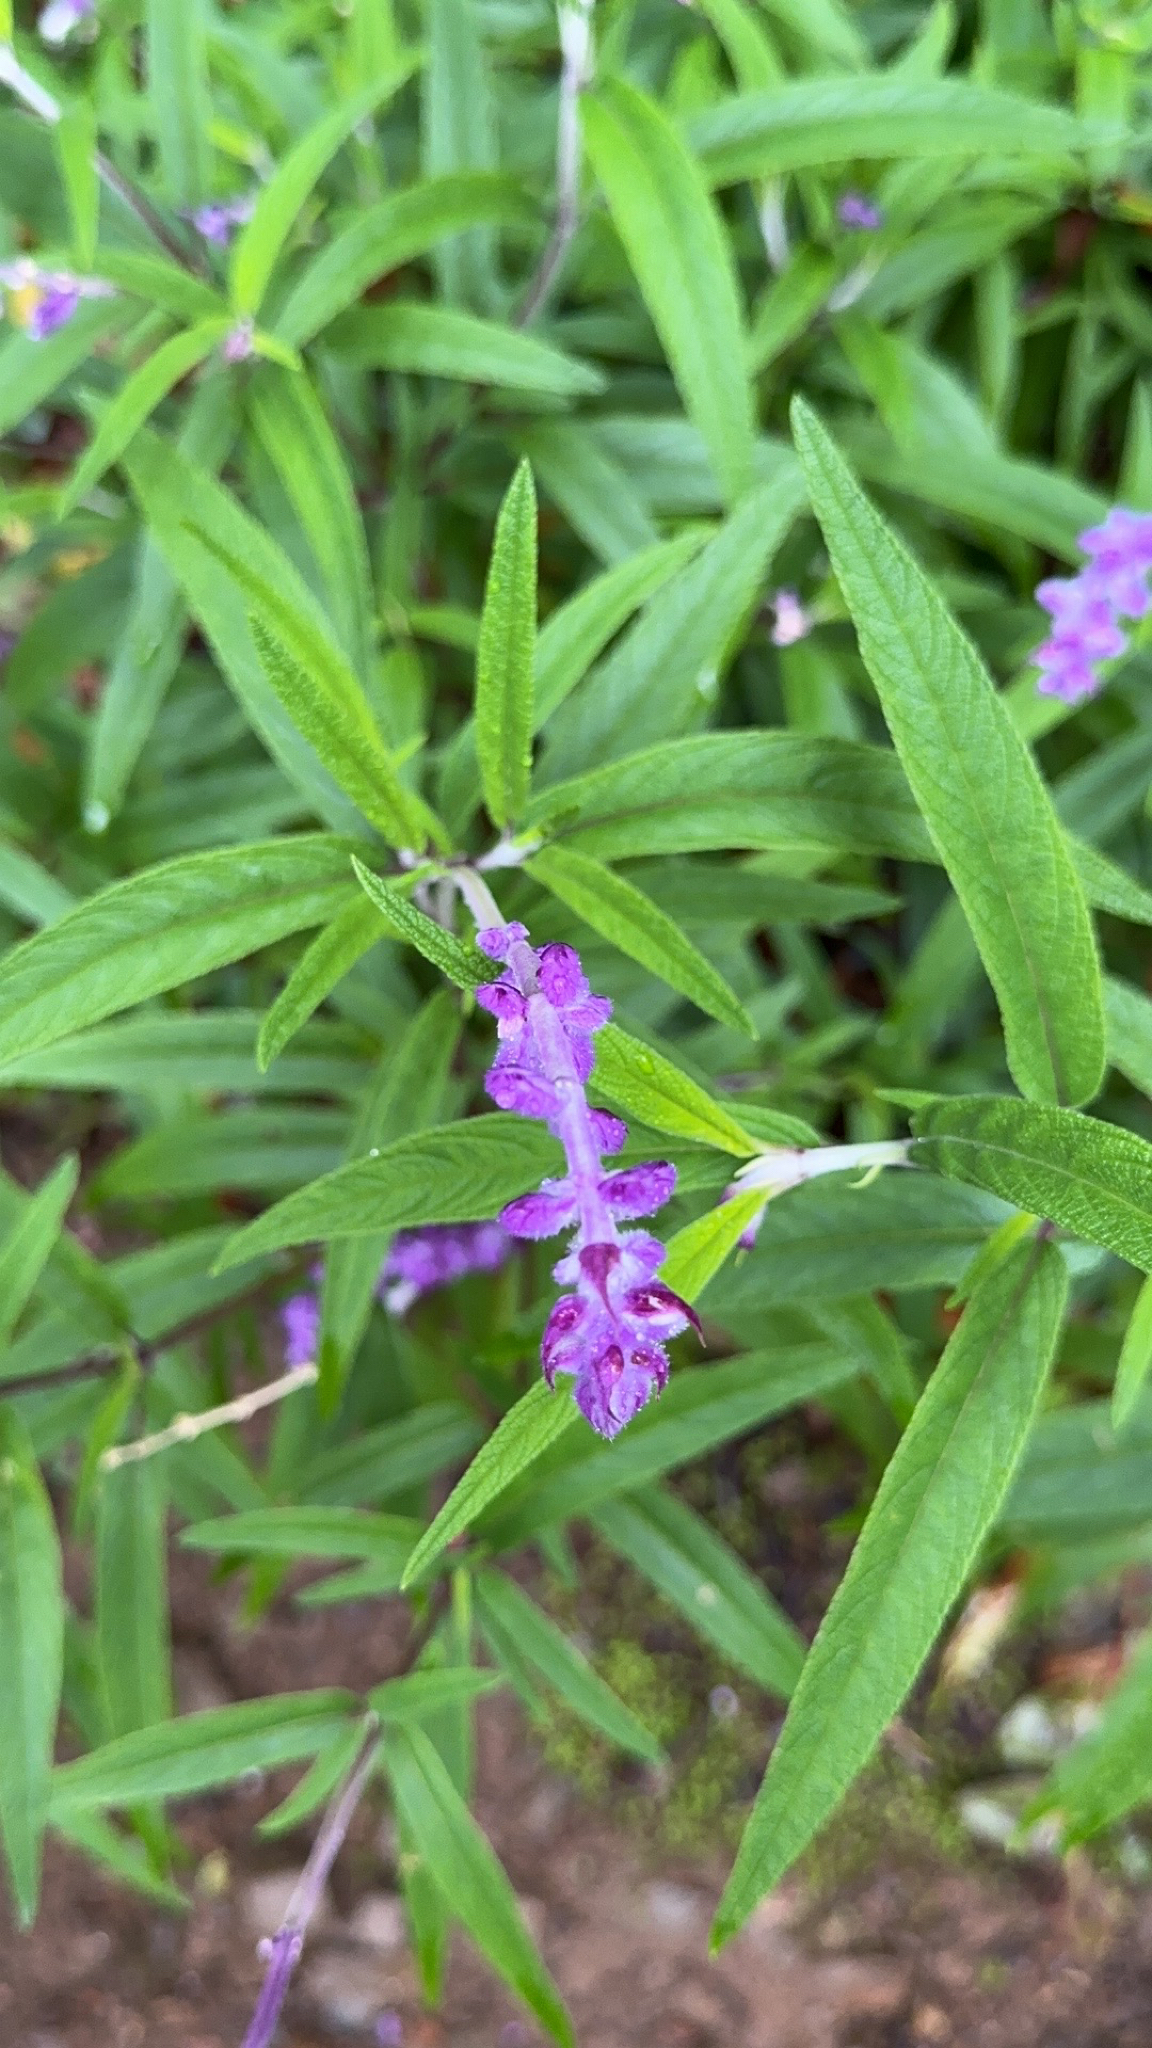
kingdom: Plantae
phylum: Tracheophyta
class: Magnoliopsida
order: Lamiales
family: Lamiaceae
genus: Salvia
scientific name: Salvia leucantha
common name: Mexican bush sage
